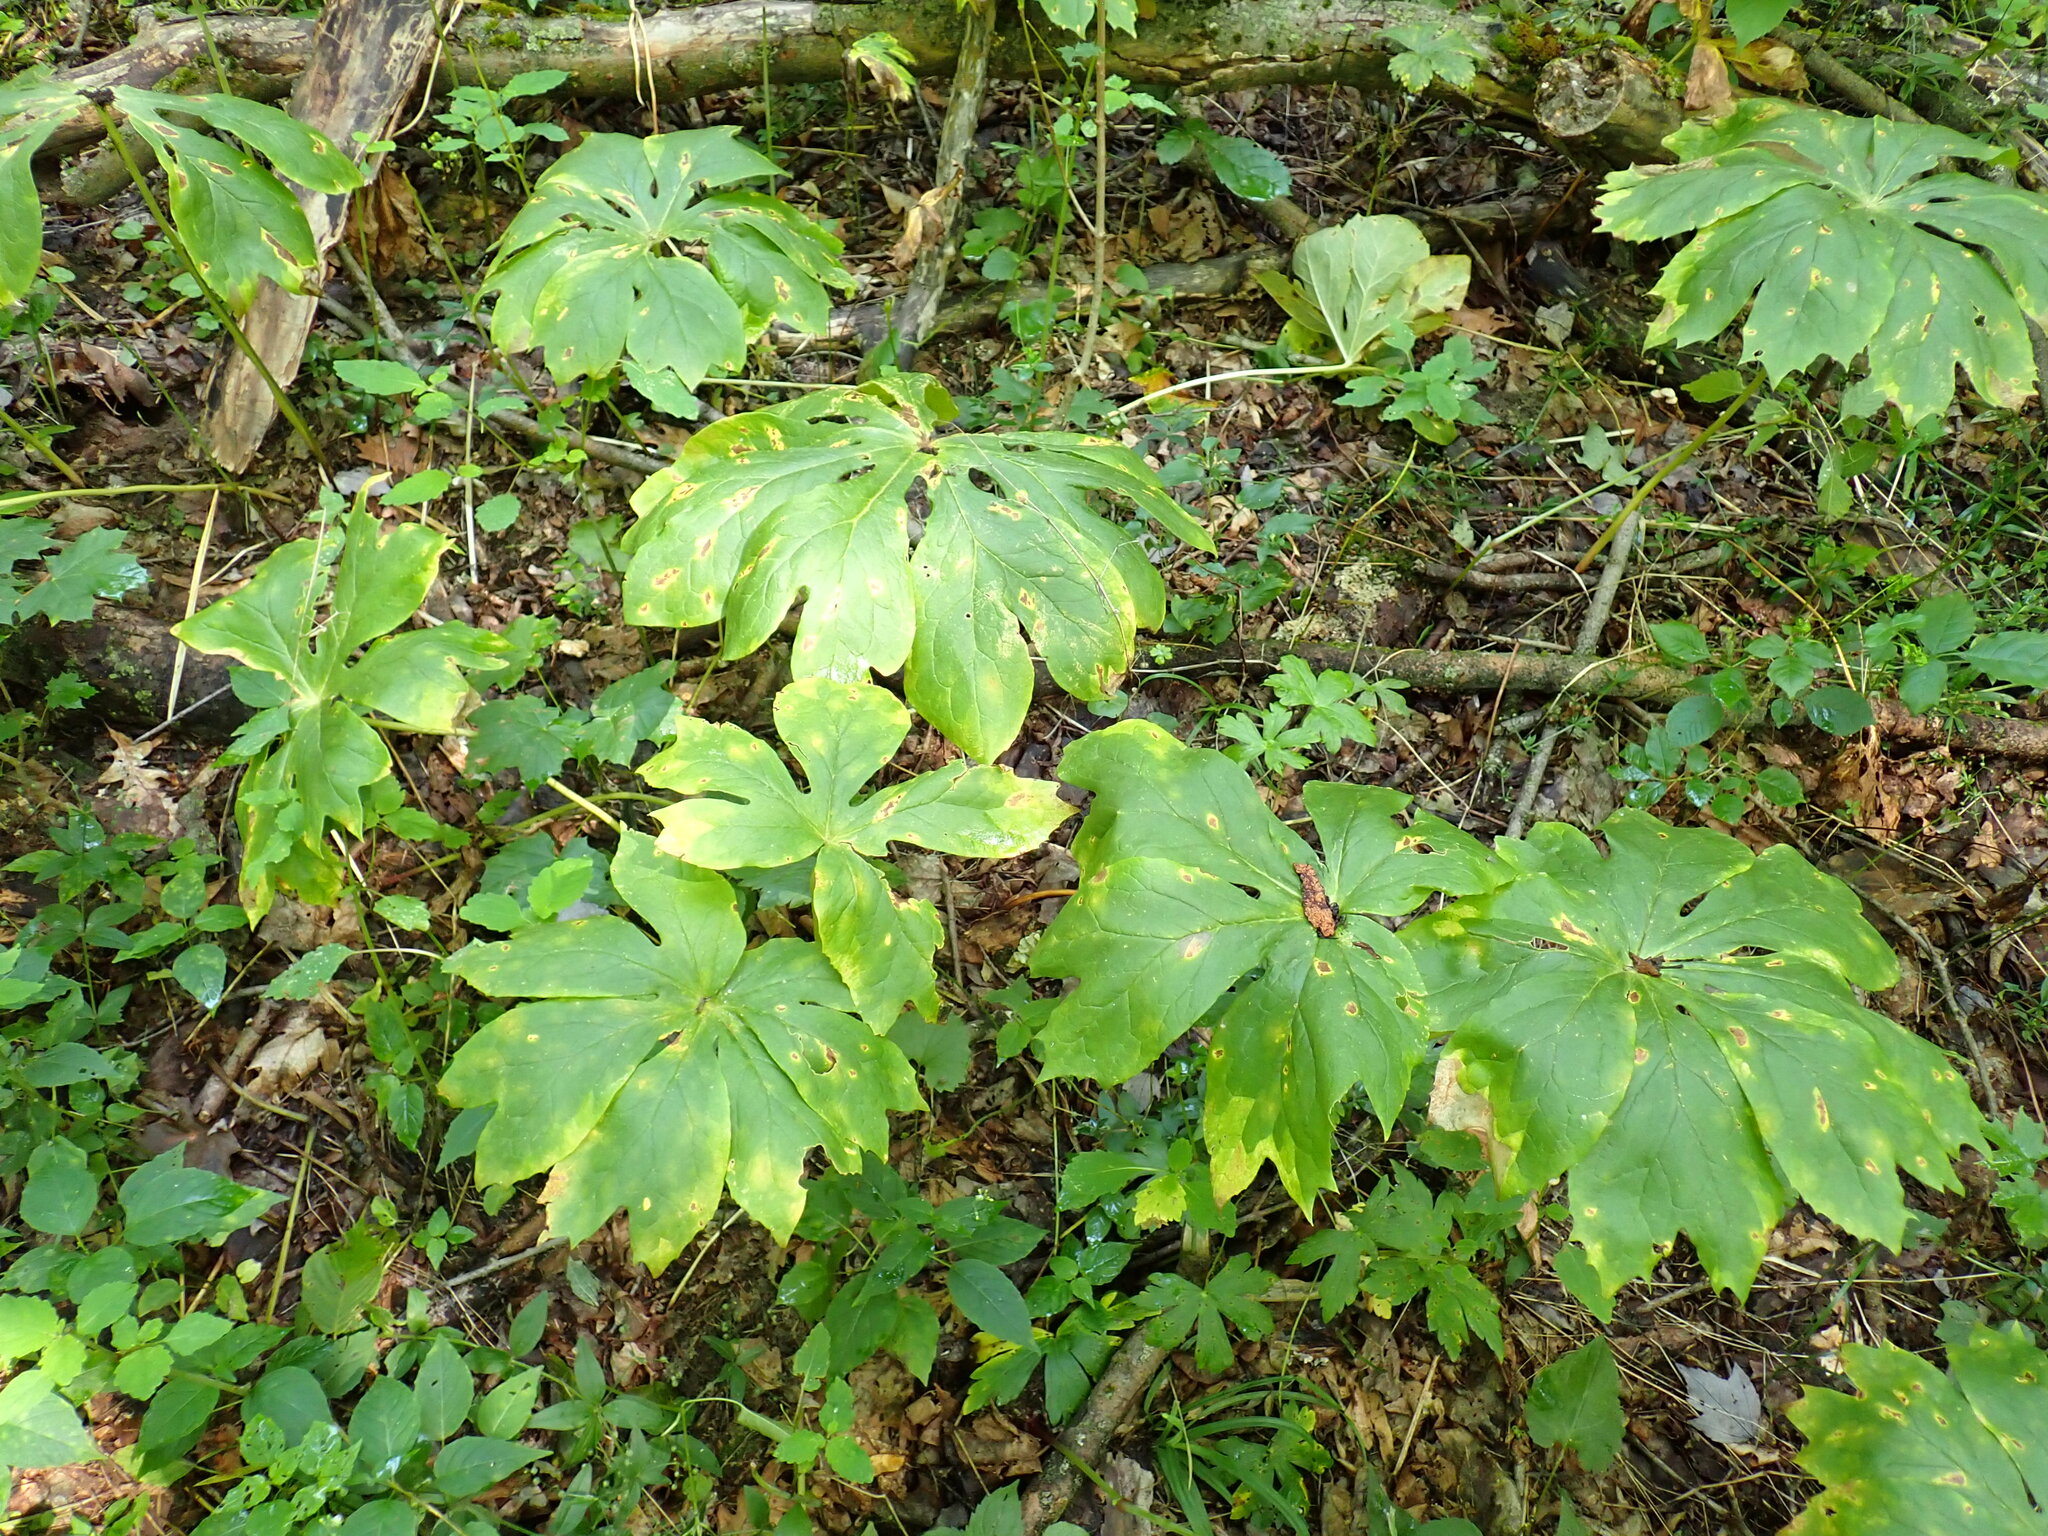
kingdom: Plantae
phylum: Tracheophyta
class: Magnoliopsida
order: Ranunculales
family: Berberidaceae
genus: Podophyllum
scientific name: Podophyllum peltatum
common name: Wild mandrake
